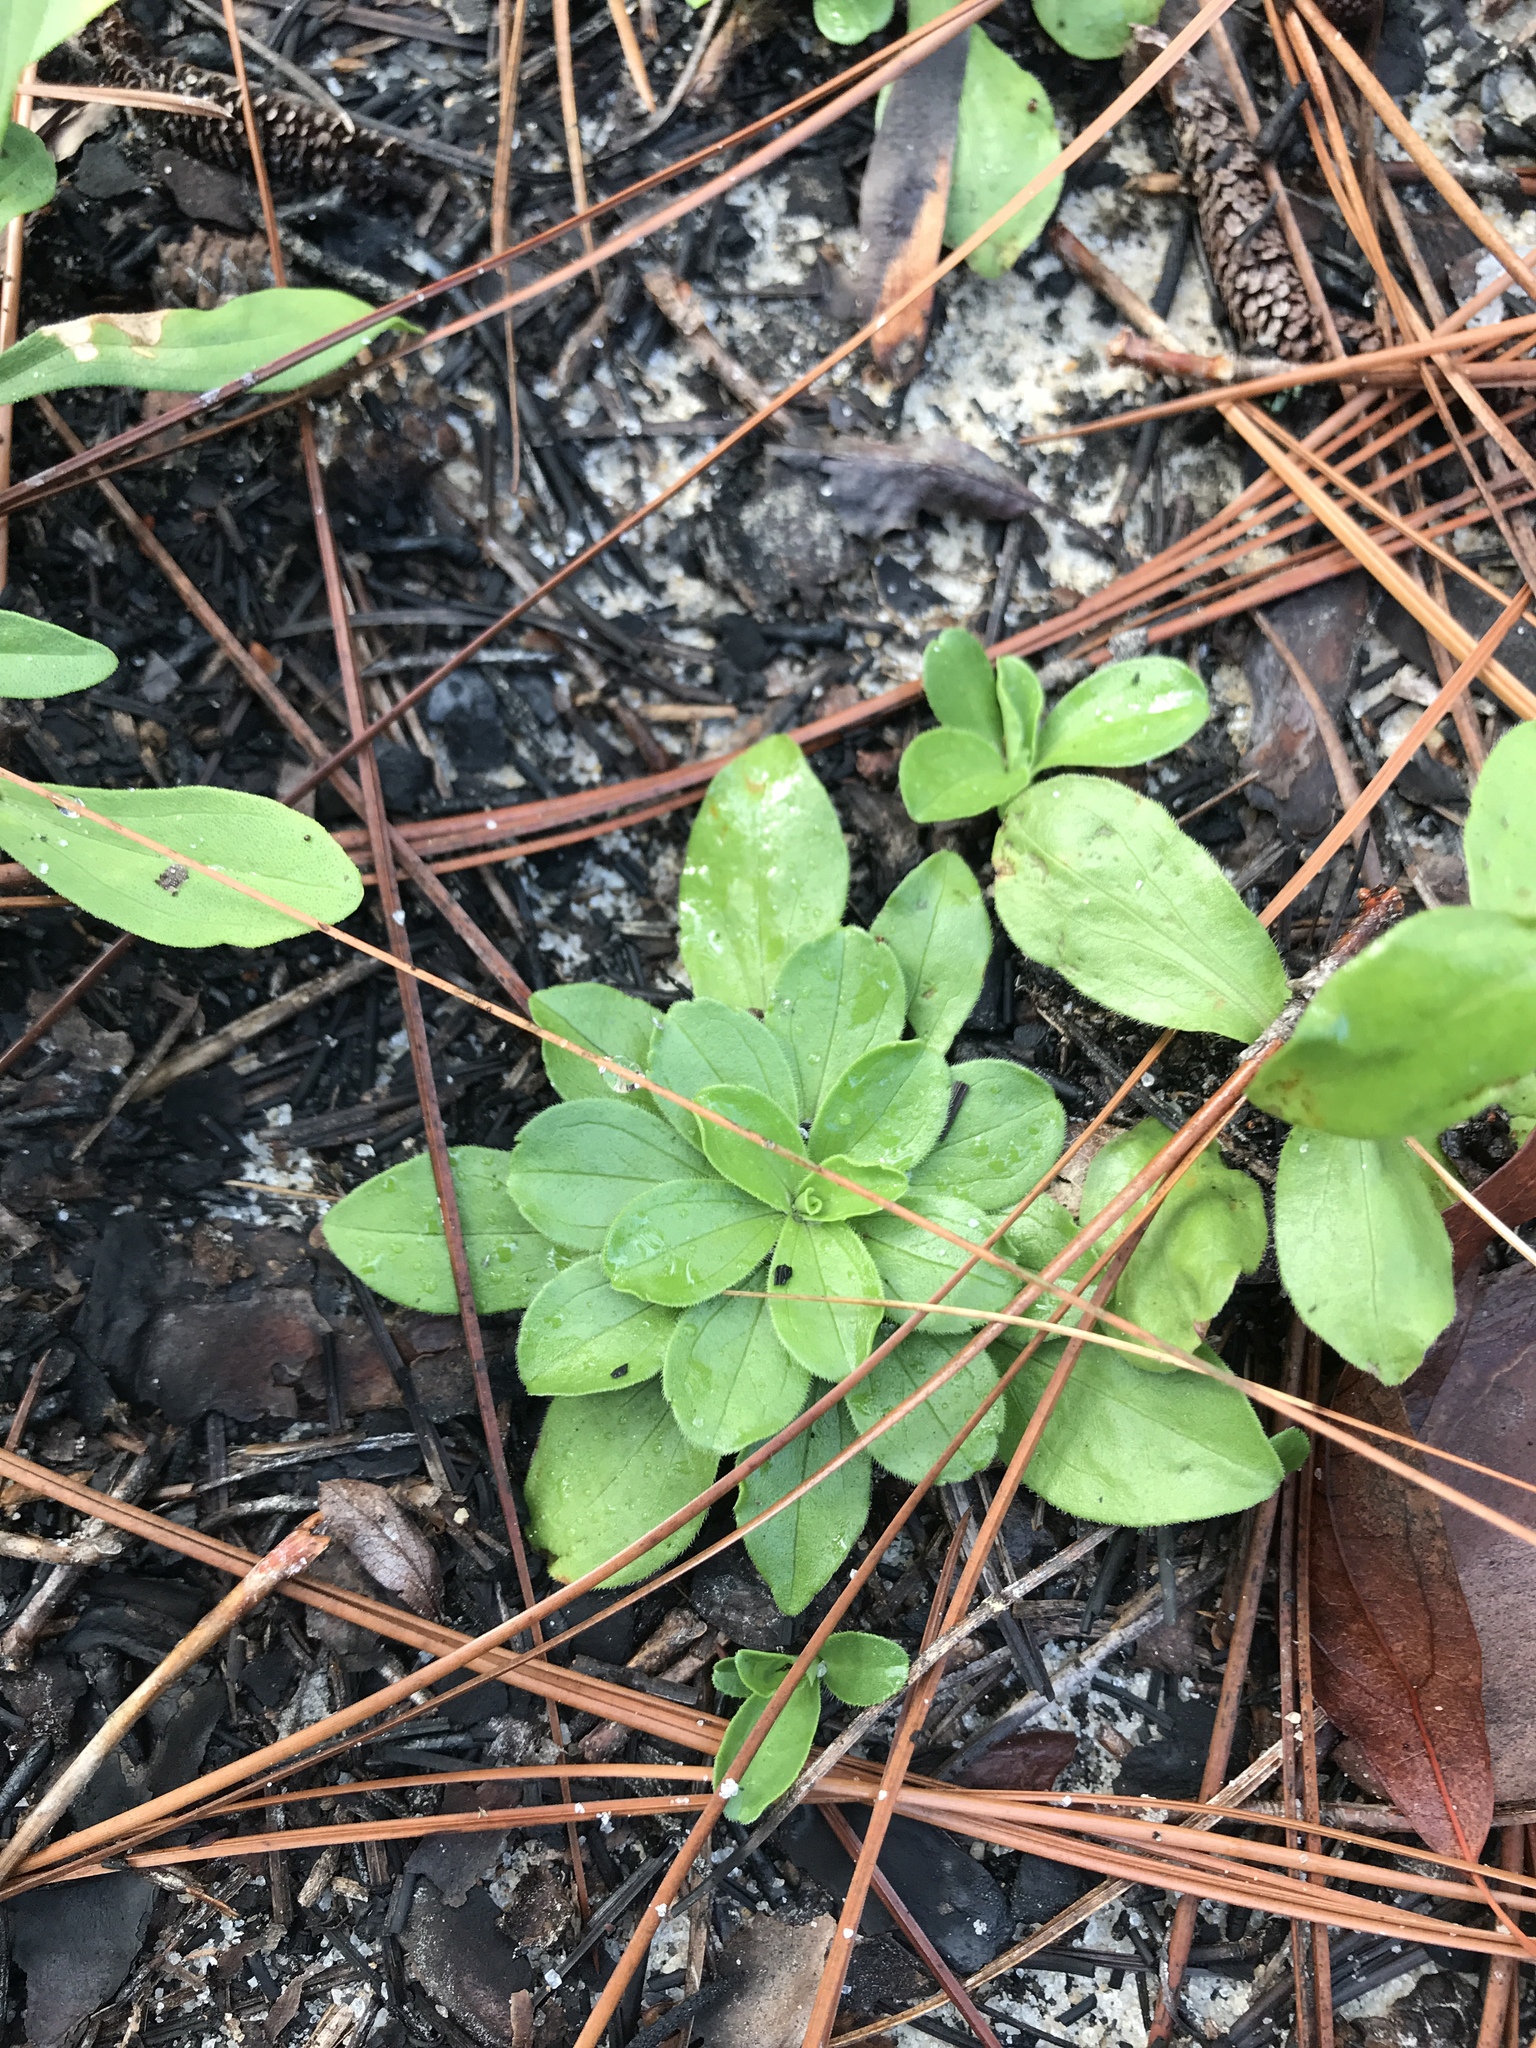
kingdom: Plantae
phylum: Tracheophyta
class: Magnoliopsida
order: Asterales
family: Asteraceae
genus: Sericocarpus
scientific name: Sericocarpus asteroides
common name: Toothed white-top aster
